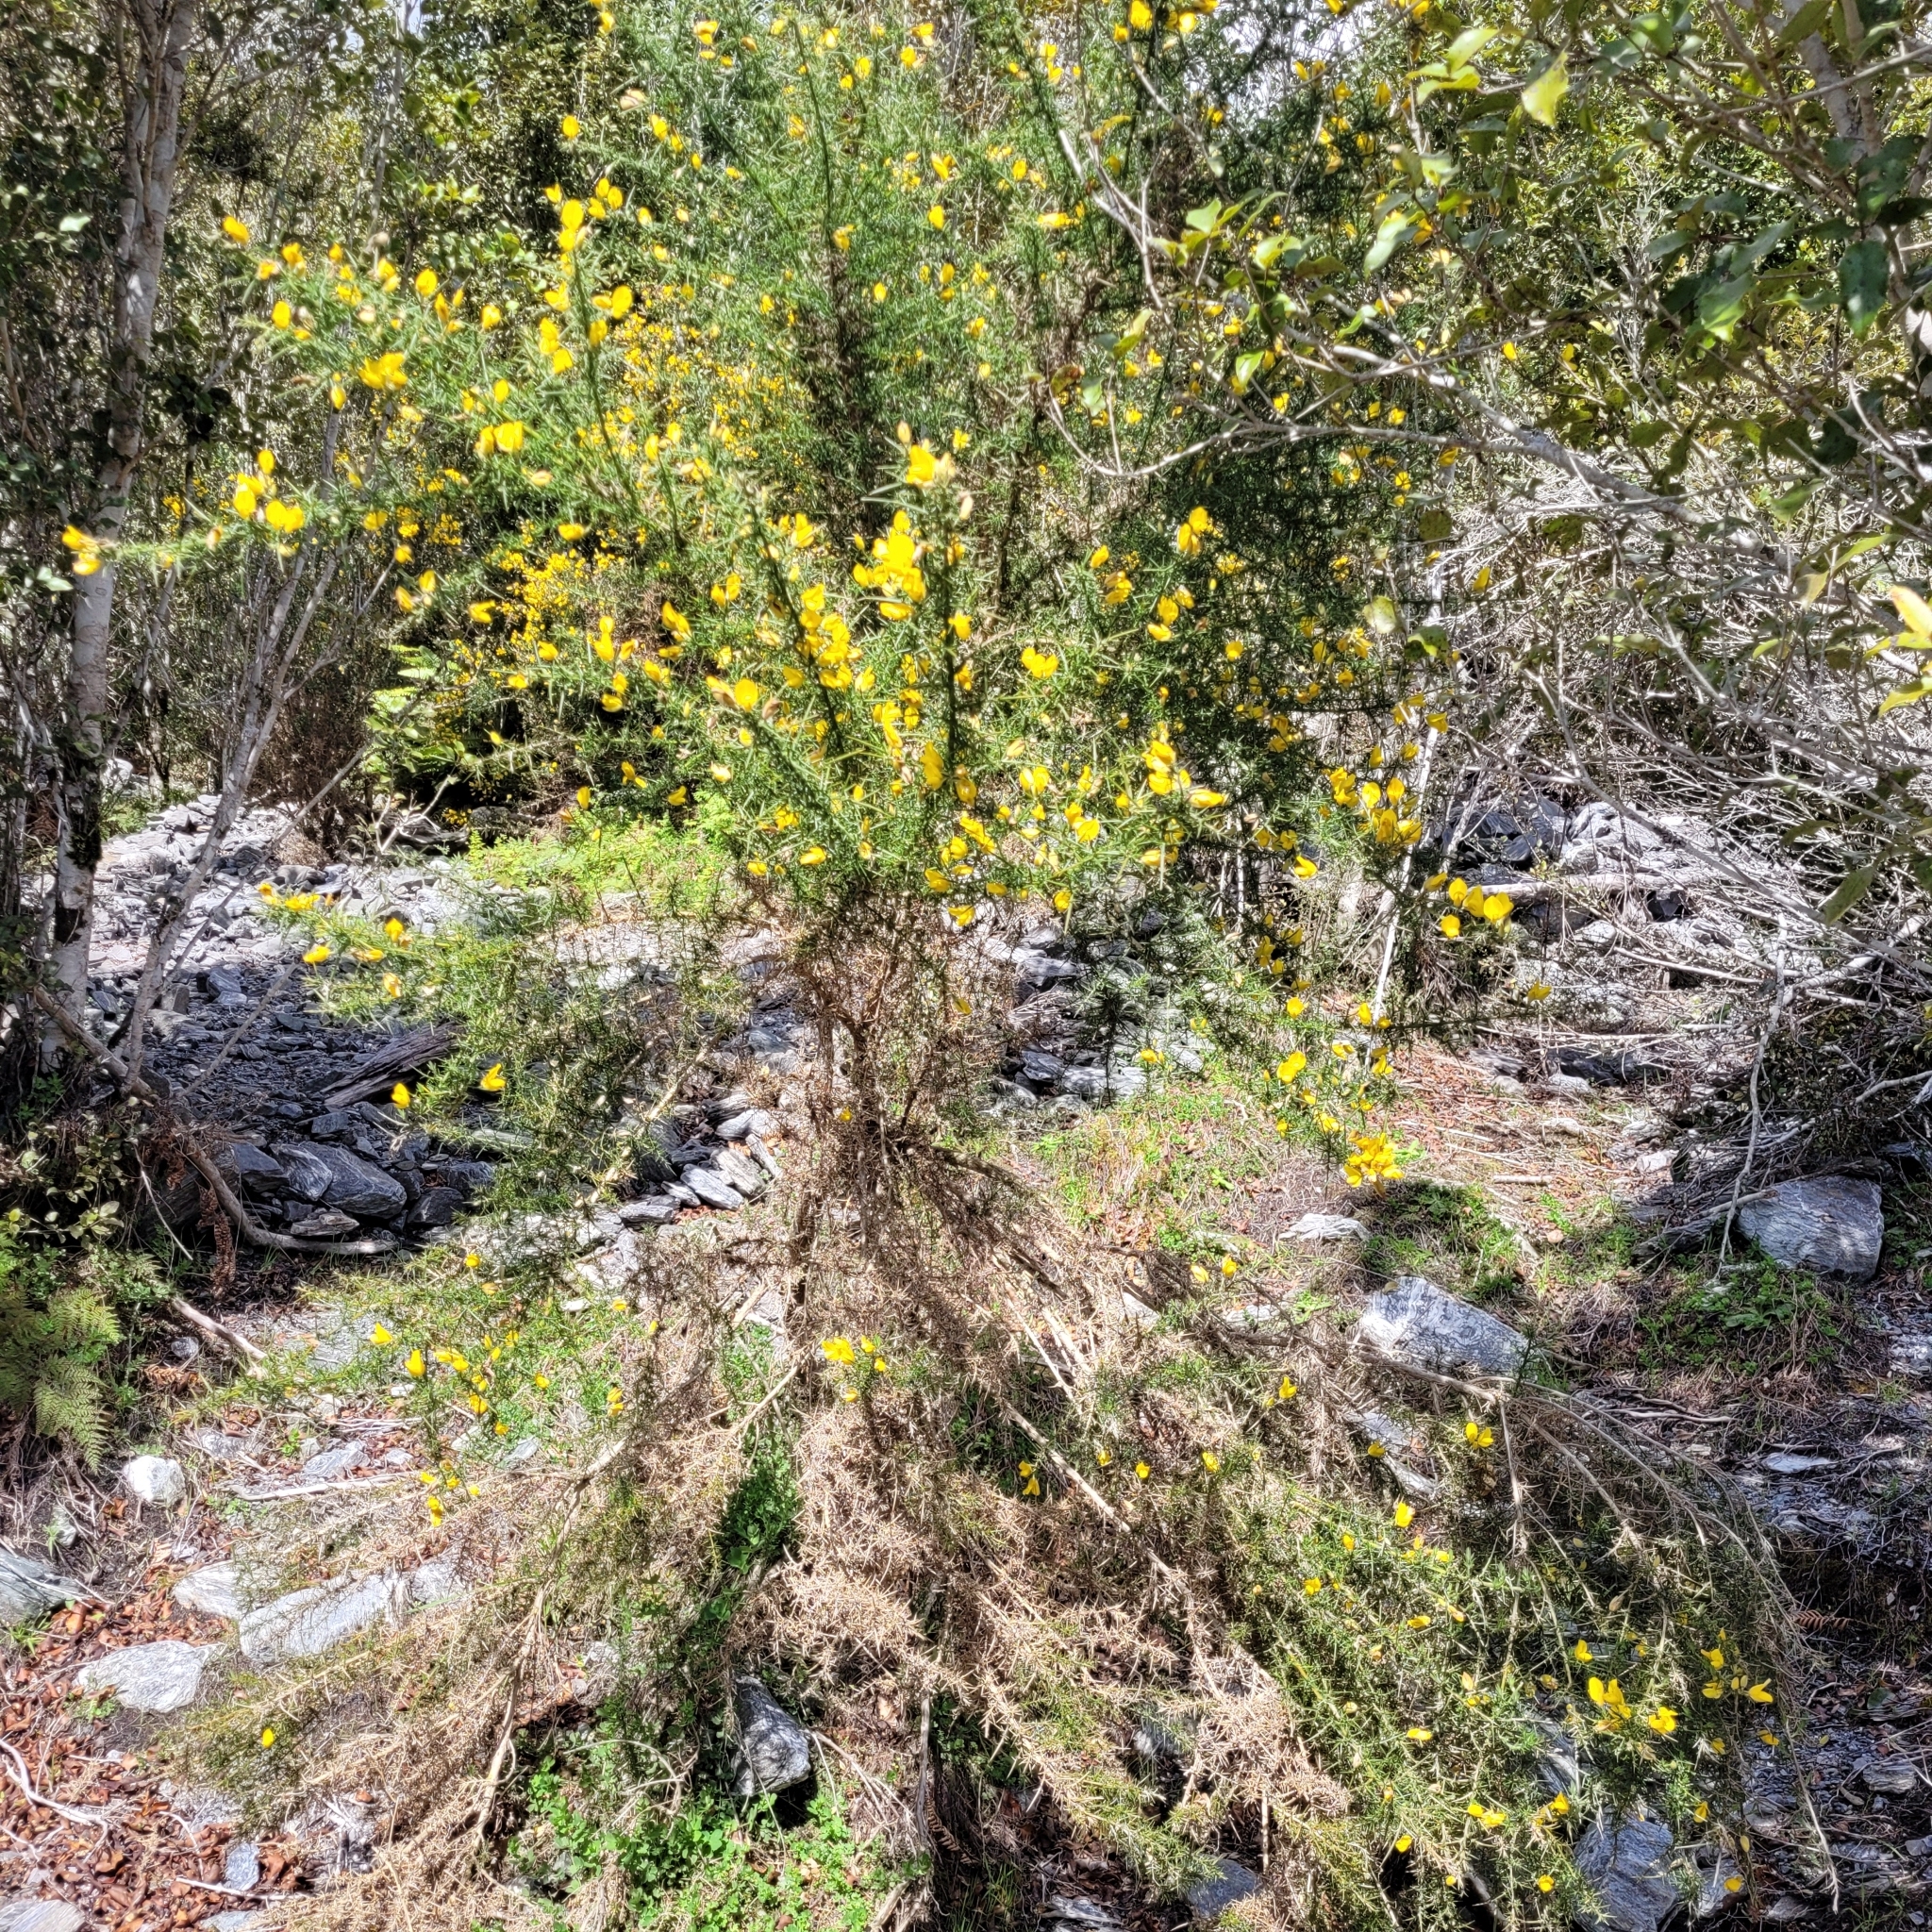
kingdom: Plantae
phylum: Tracheophyta
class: Magnoliopsida
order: Fabales
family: Fabaceae
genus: Ulex
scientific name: Ulex europaeus
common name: Common gorse
